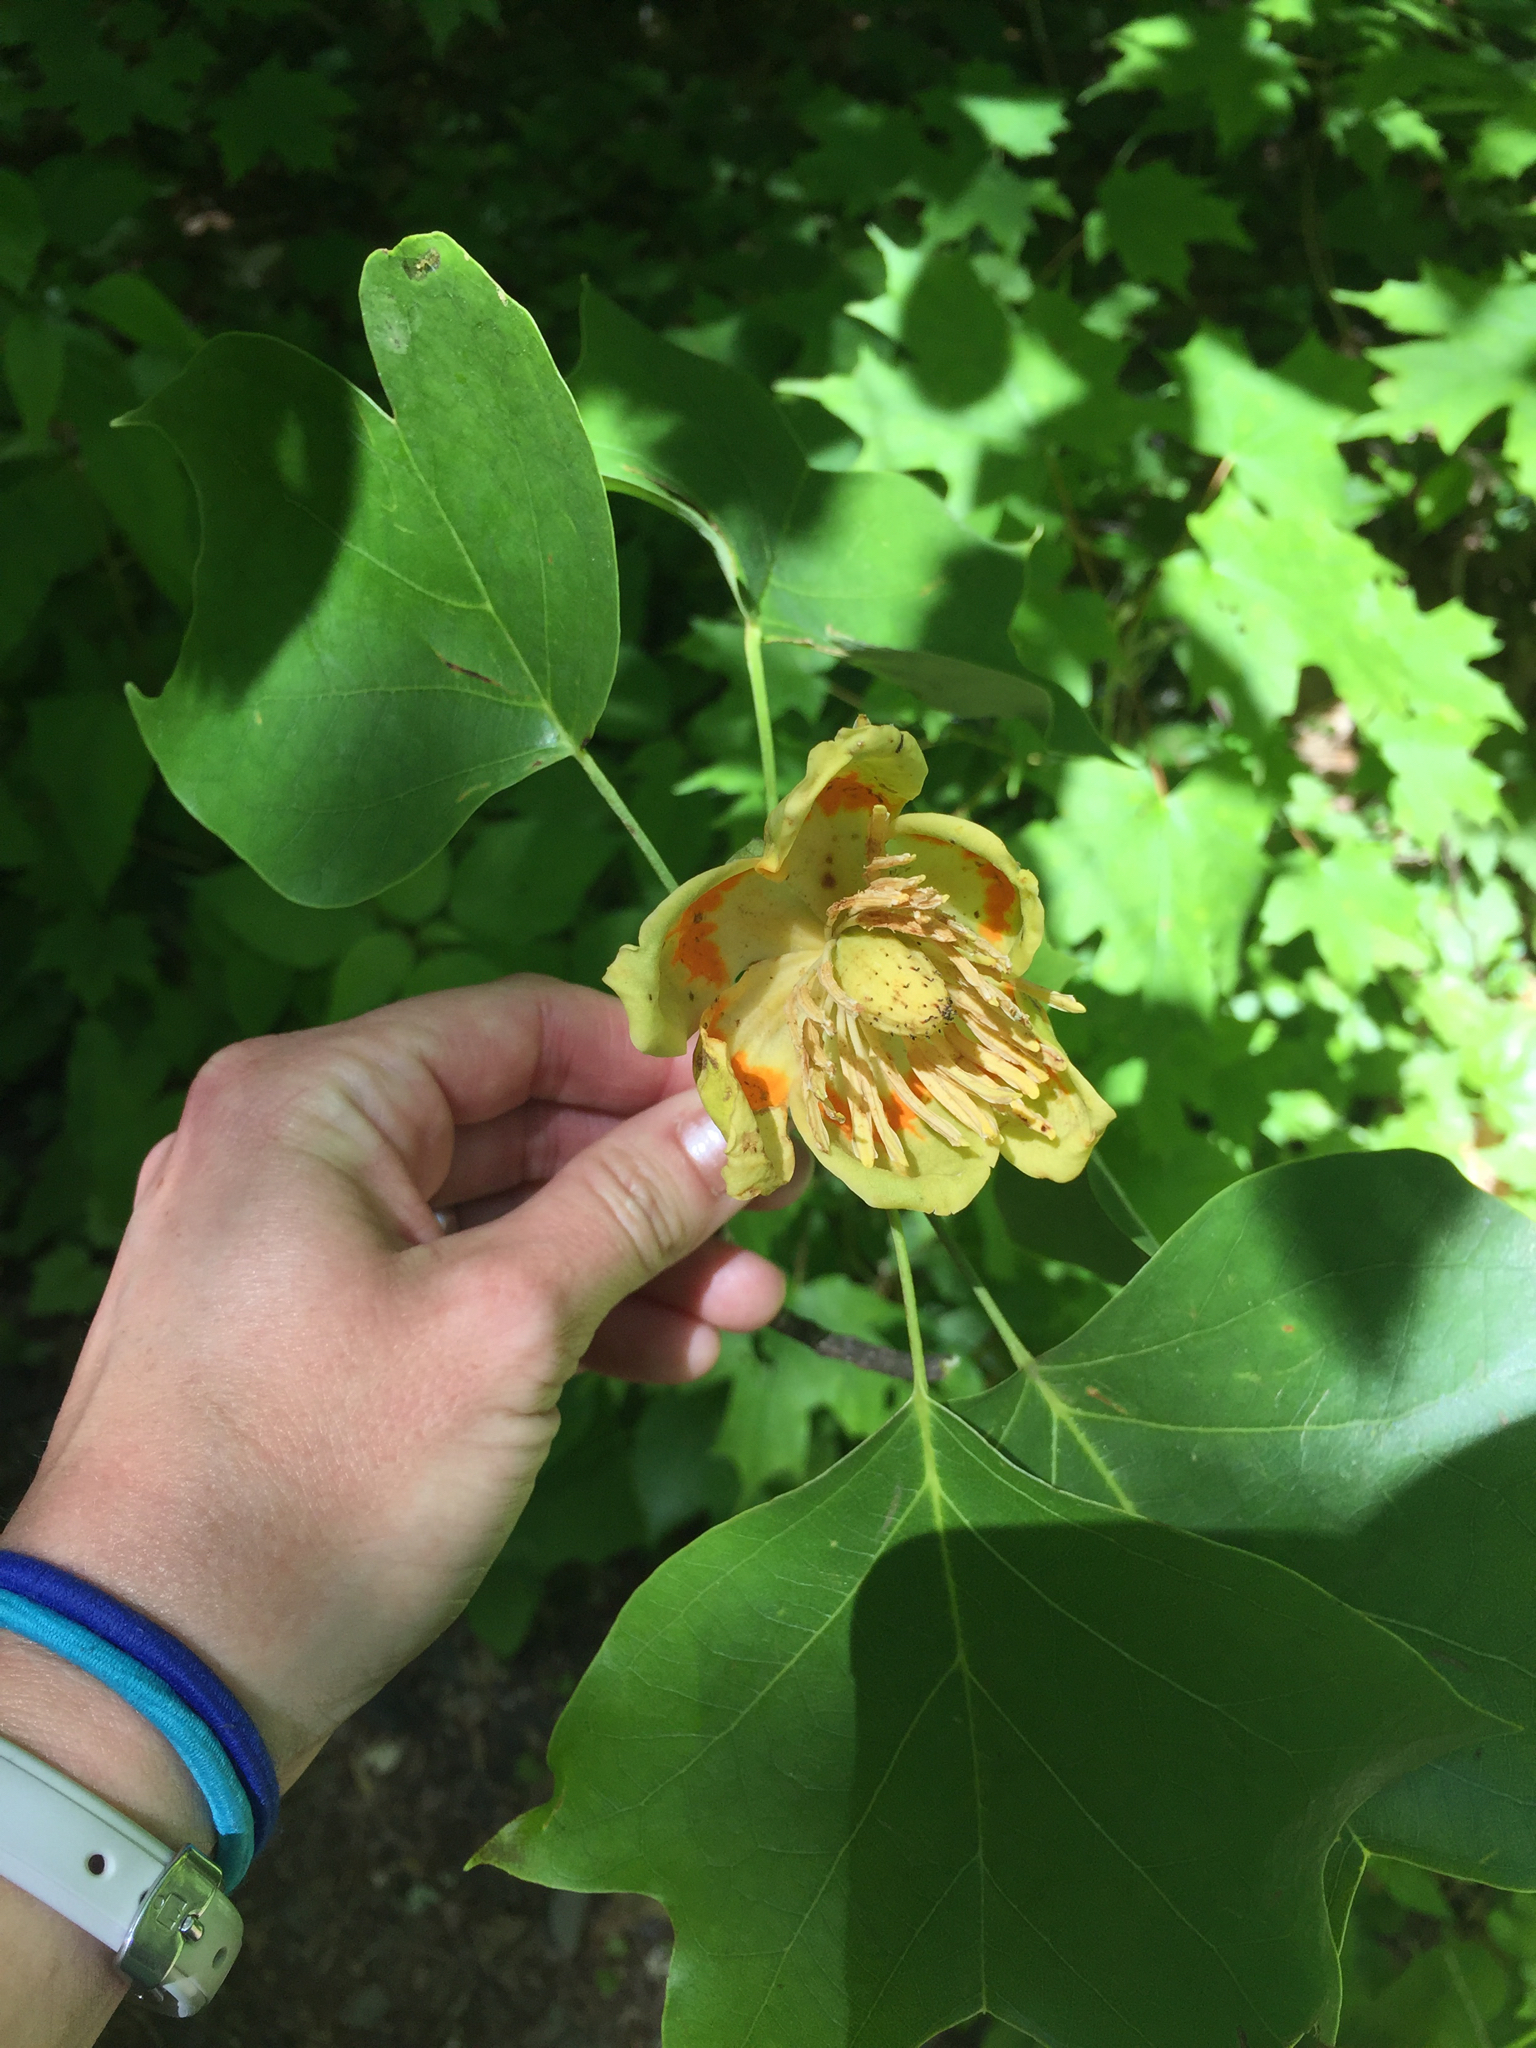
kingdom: Plantae
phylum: Tracheophyta
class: Magnoliopsida
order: Magnoliales
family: Magnoliaceae
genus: Liriodendron
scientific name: Liriodendron tulipifera
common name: Tulip tree
